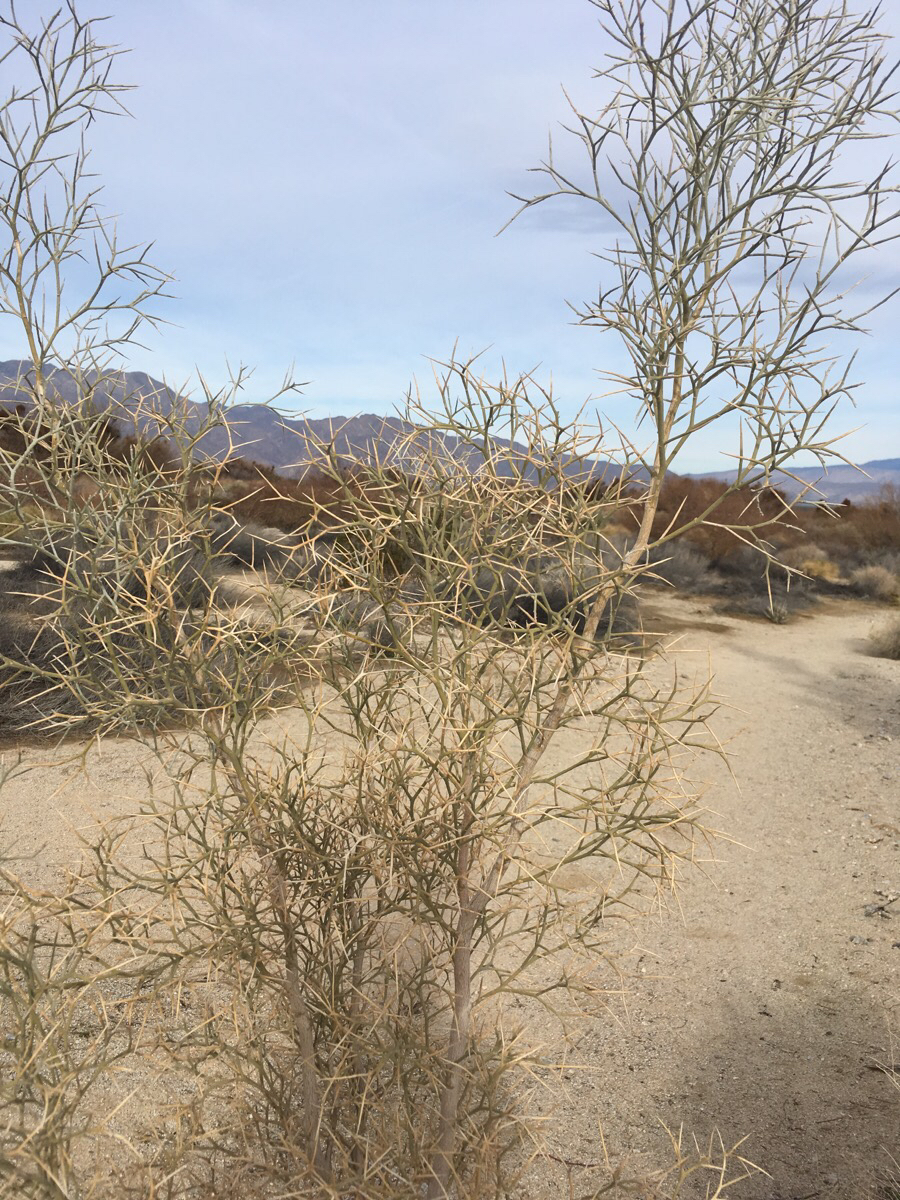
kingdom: Plantae
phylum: Tracheophyta
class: Magnoliopsida
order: Fabales
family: Fabaceae
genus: Psorothamnus
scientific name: Psorothamnus spinosus
